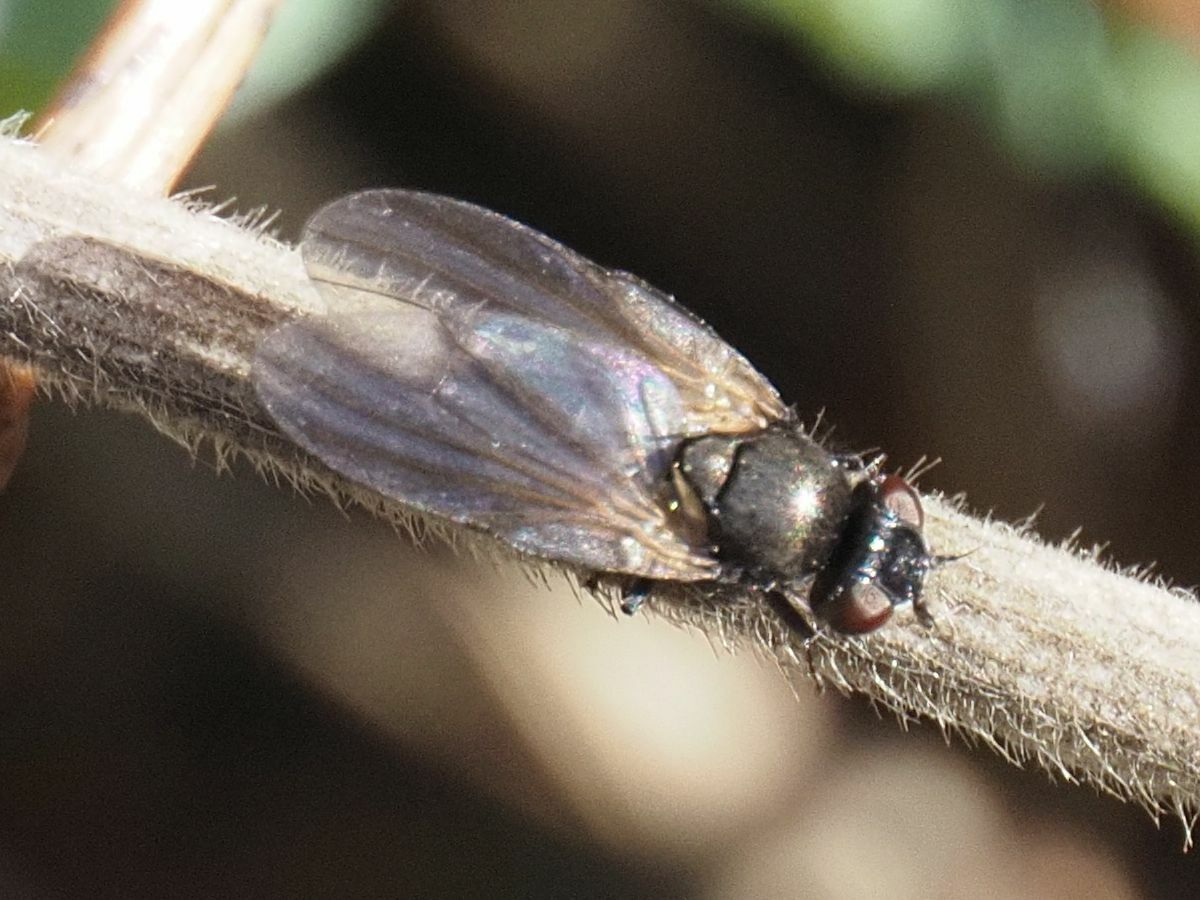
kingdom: Animalia
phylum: Arthropoda
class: Insecta
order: Diptera
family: Lonchaeidae
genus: Earomyia
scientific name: Earomyia lonchaeoides
